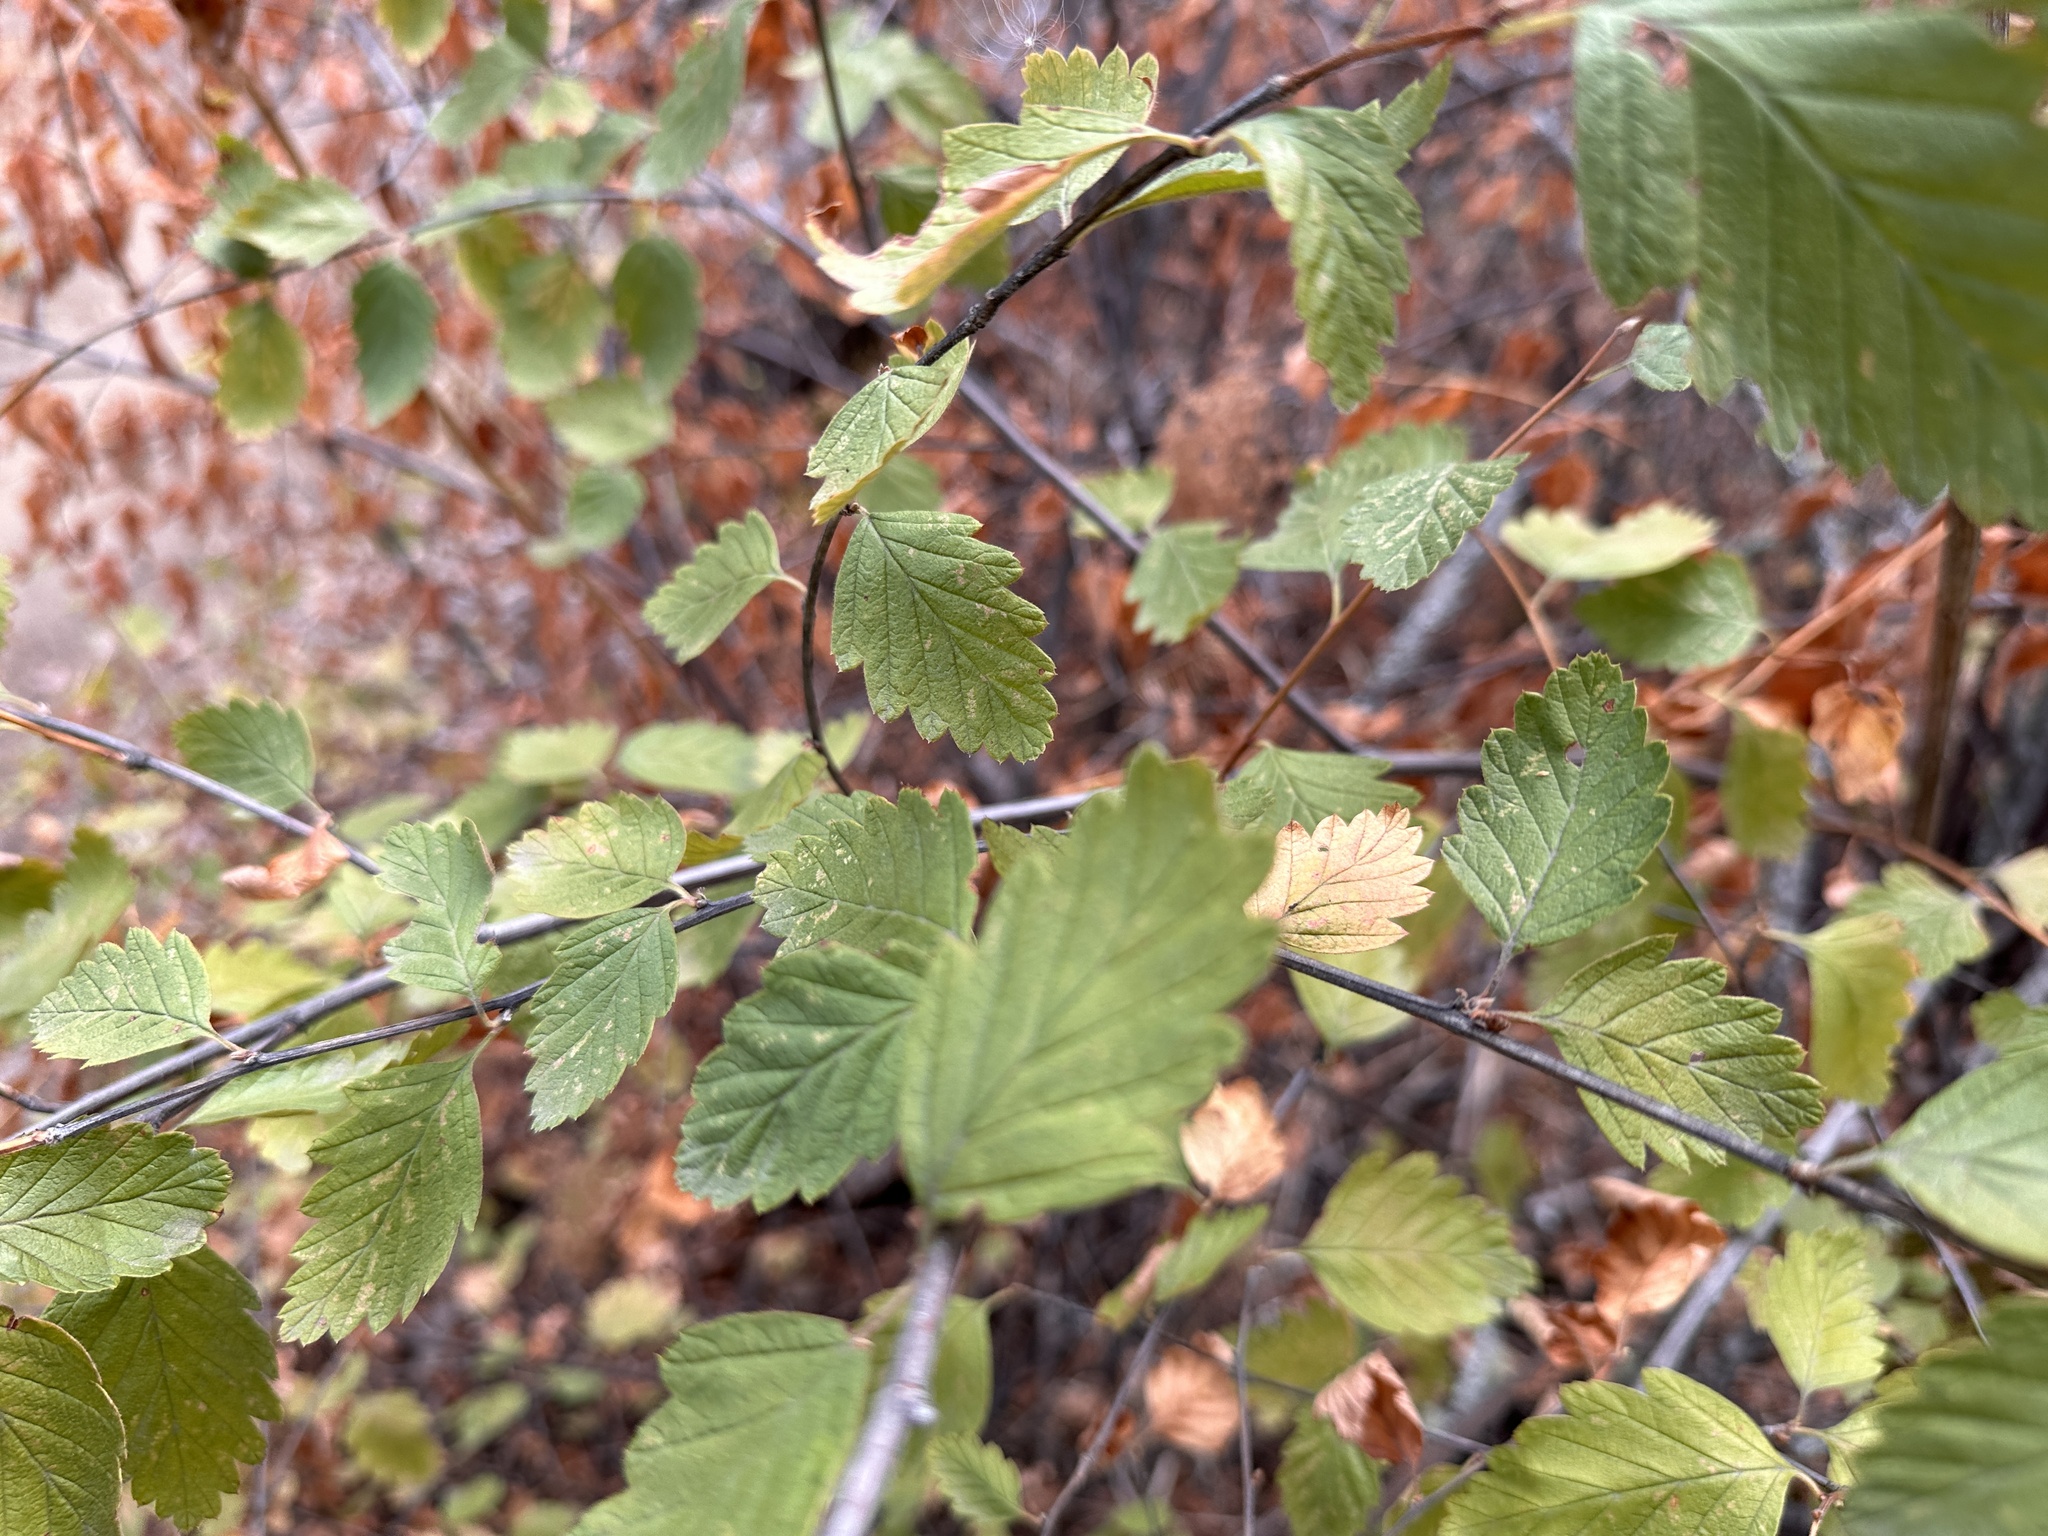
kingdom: Plantae
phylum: Tracheophyta
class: Magnoliopsida
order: Rosales
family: Rosaceae
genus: Holodiscus
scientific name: Holodiscus discolor
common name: Oceanspray
